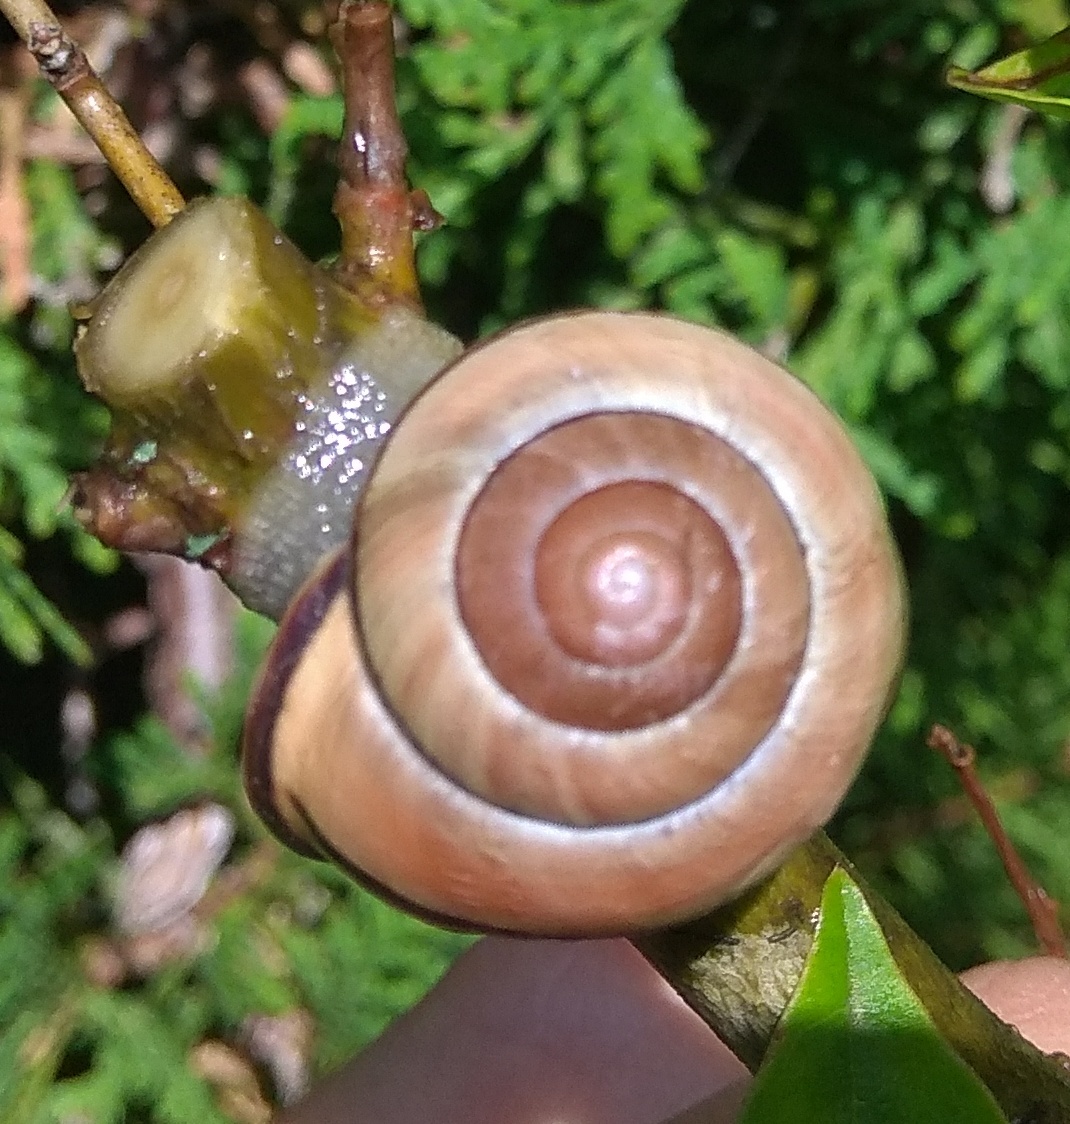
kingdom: Animalia
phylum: Mollusca
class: Gastropoda
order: Stylommatophora
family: Helicidae
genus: Cepaea
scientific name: Cepaea nemoralis
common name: Grovesnail
